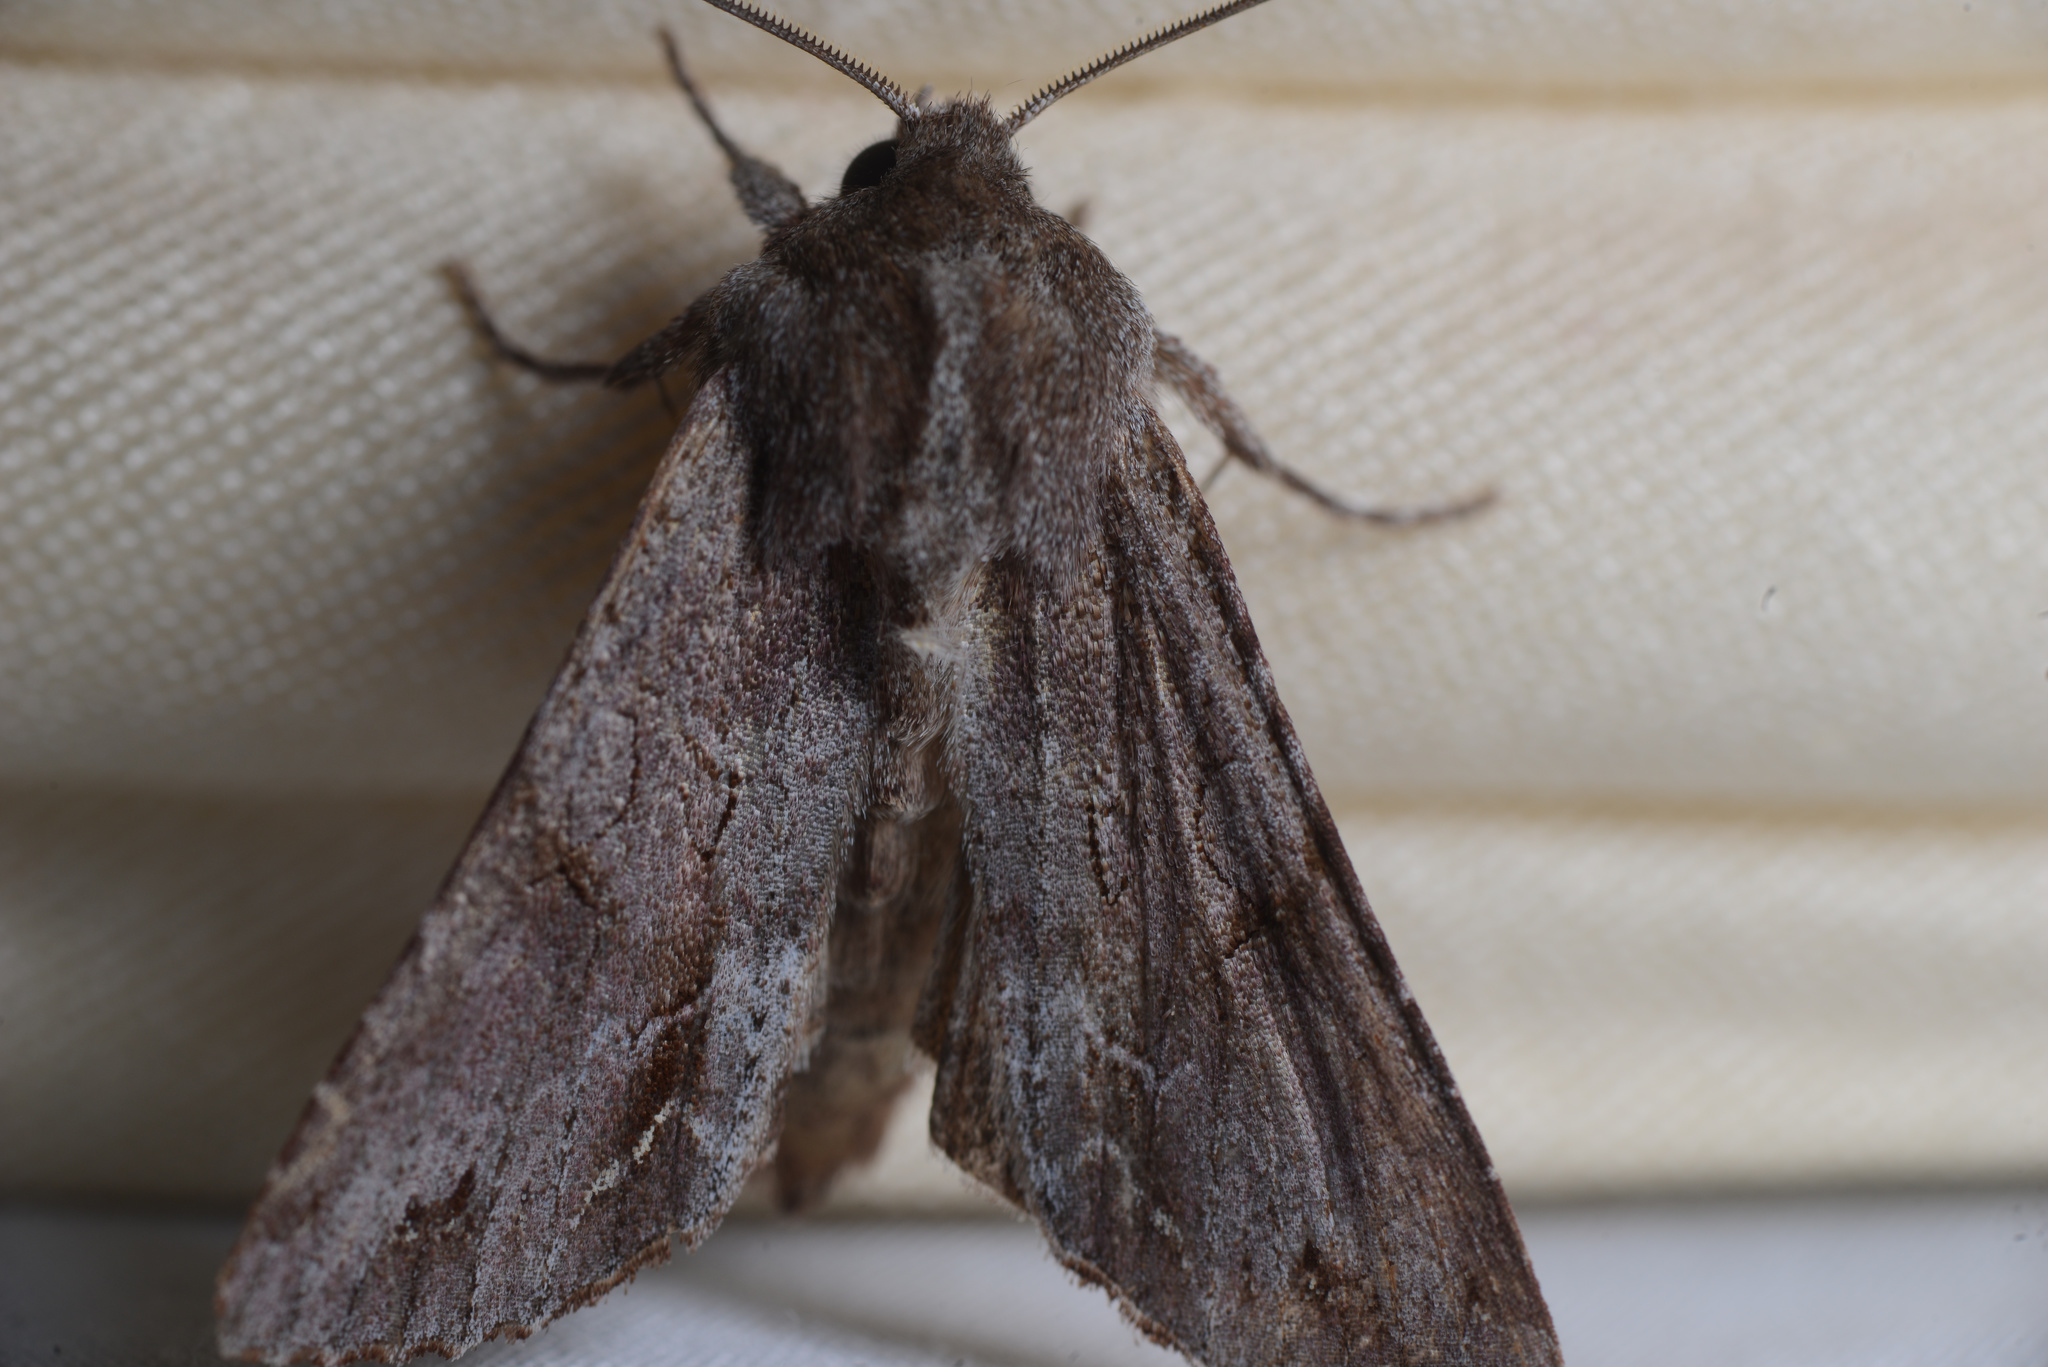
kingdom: Animalia
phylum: Arthropoda
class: Insecta
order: Lepidoptera
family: Noctuidae
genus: Ichneutica
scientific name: Ichneutica
